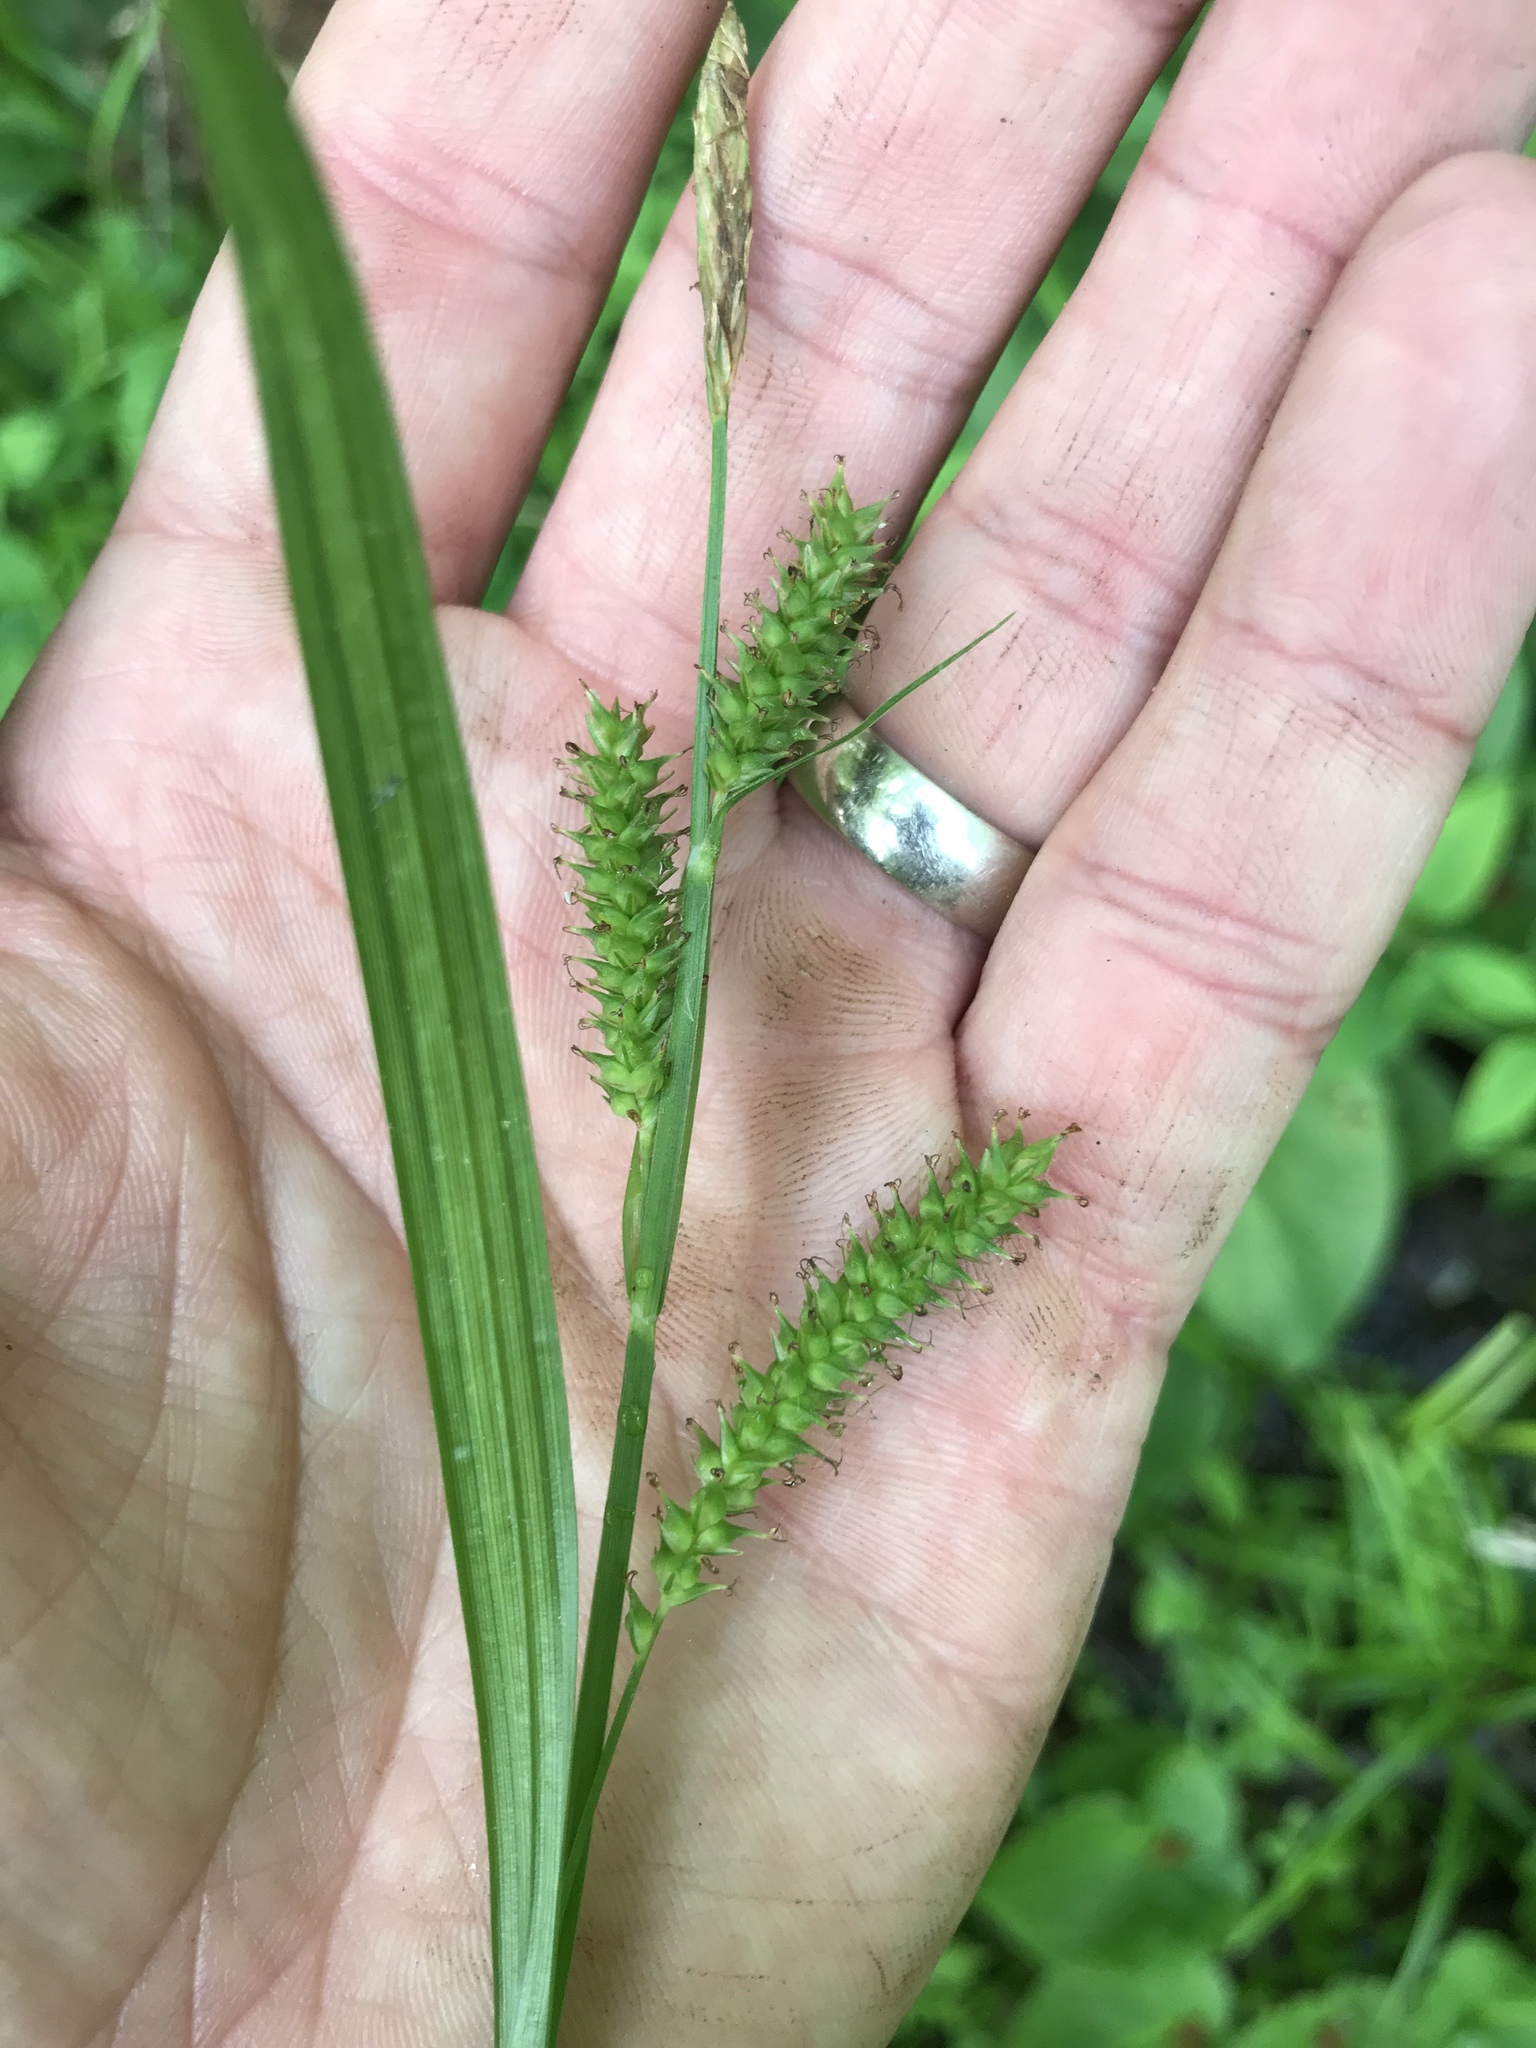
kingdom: Plantae
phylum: Tracheophyta
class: Liliopsida
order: Poales
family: Cyperaceae
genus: Carex
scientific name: Carex scabrata
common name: Eastern rough sedge
